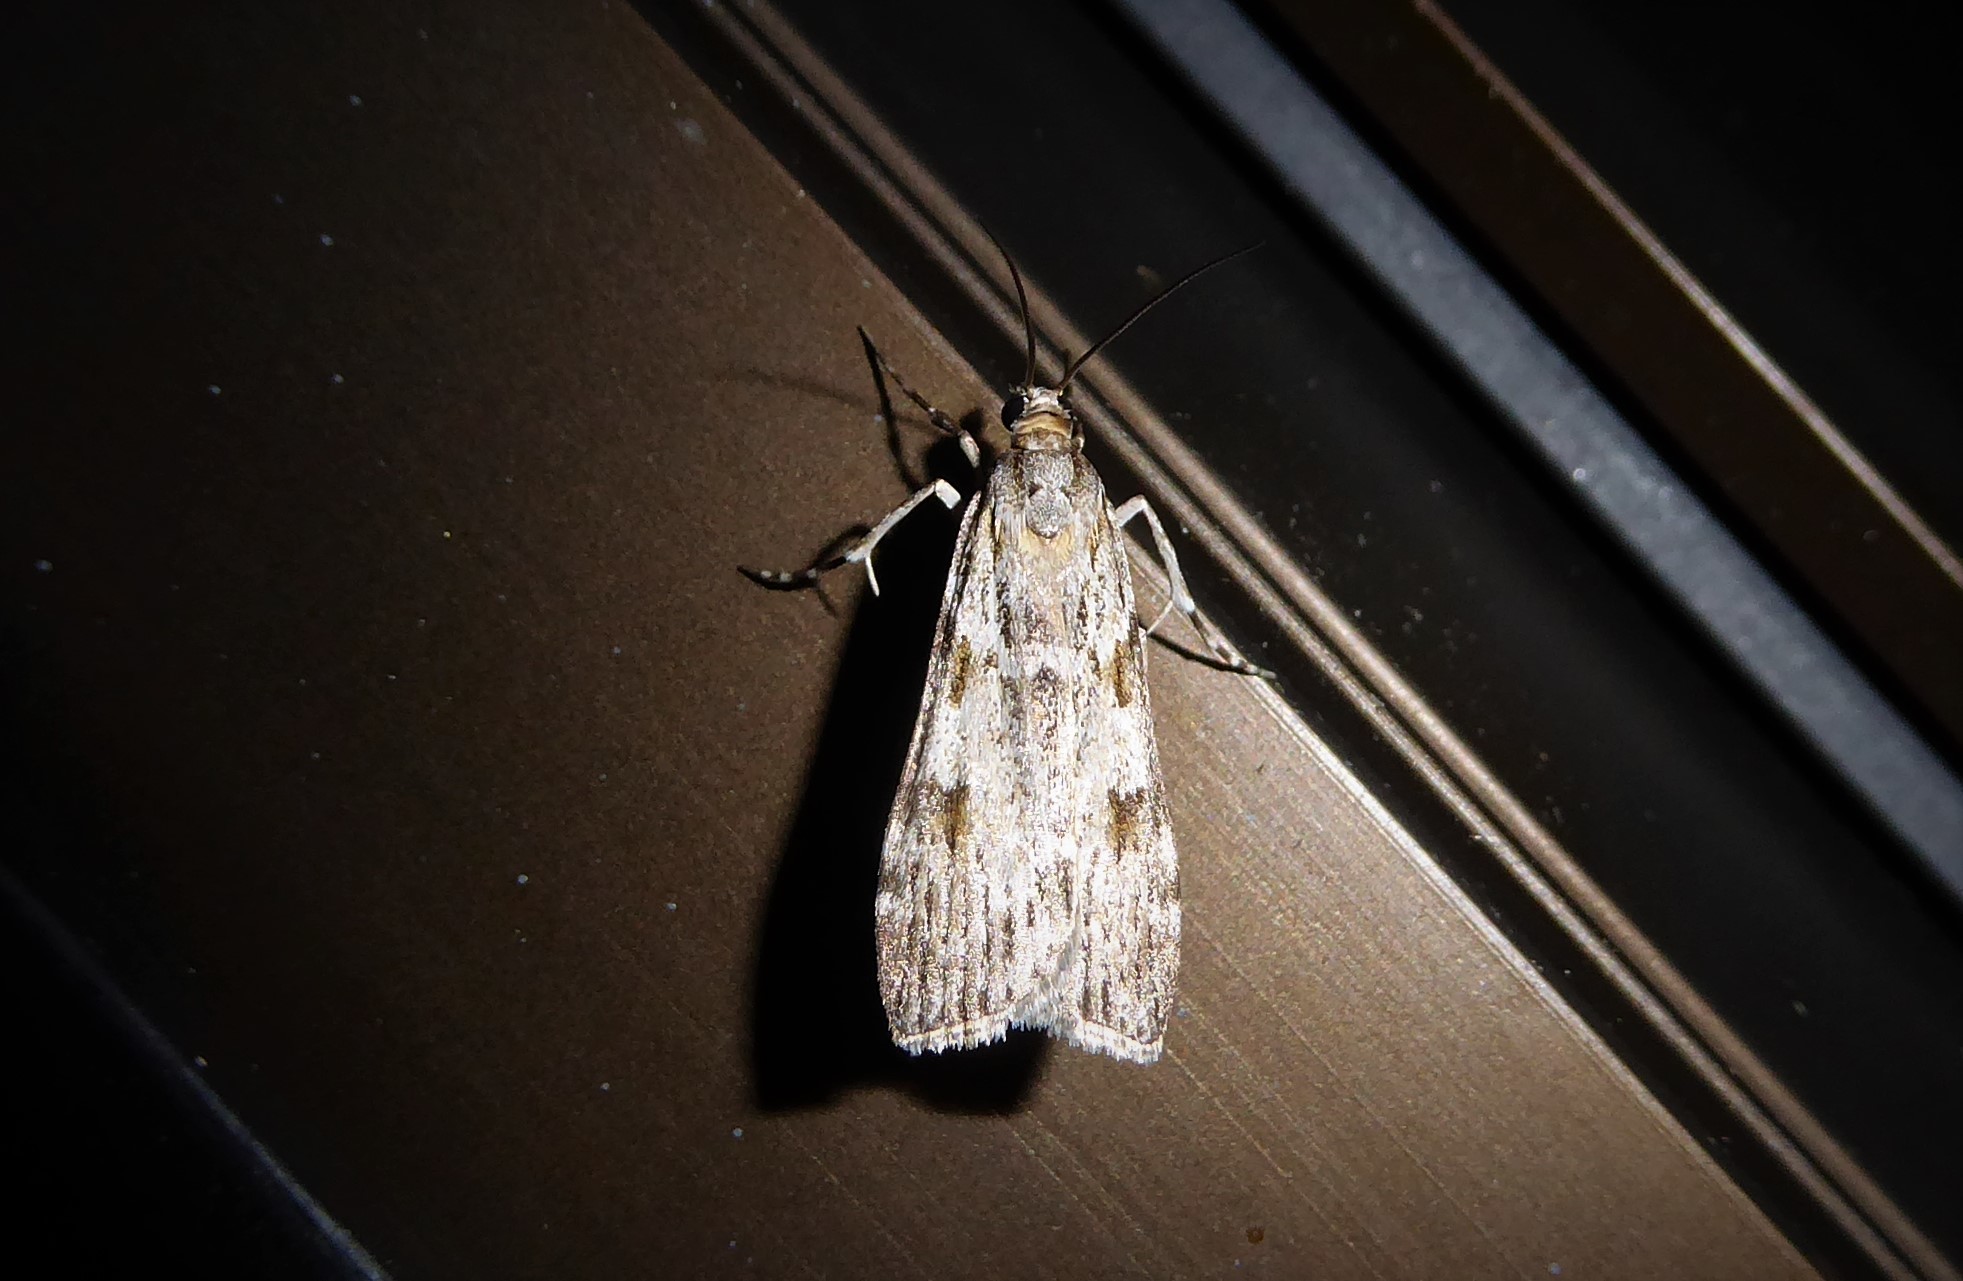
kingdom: Animalia
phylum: Arthropoda
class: Insecta
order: Lepidoptera
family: Crambidae
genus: Scoparia
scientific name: Scoparia halopis
